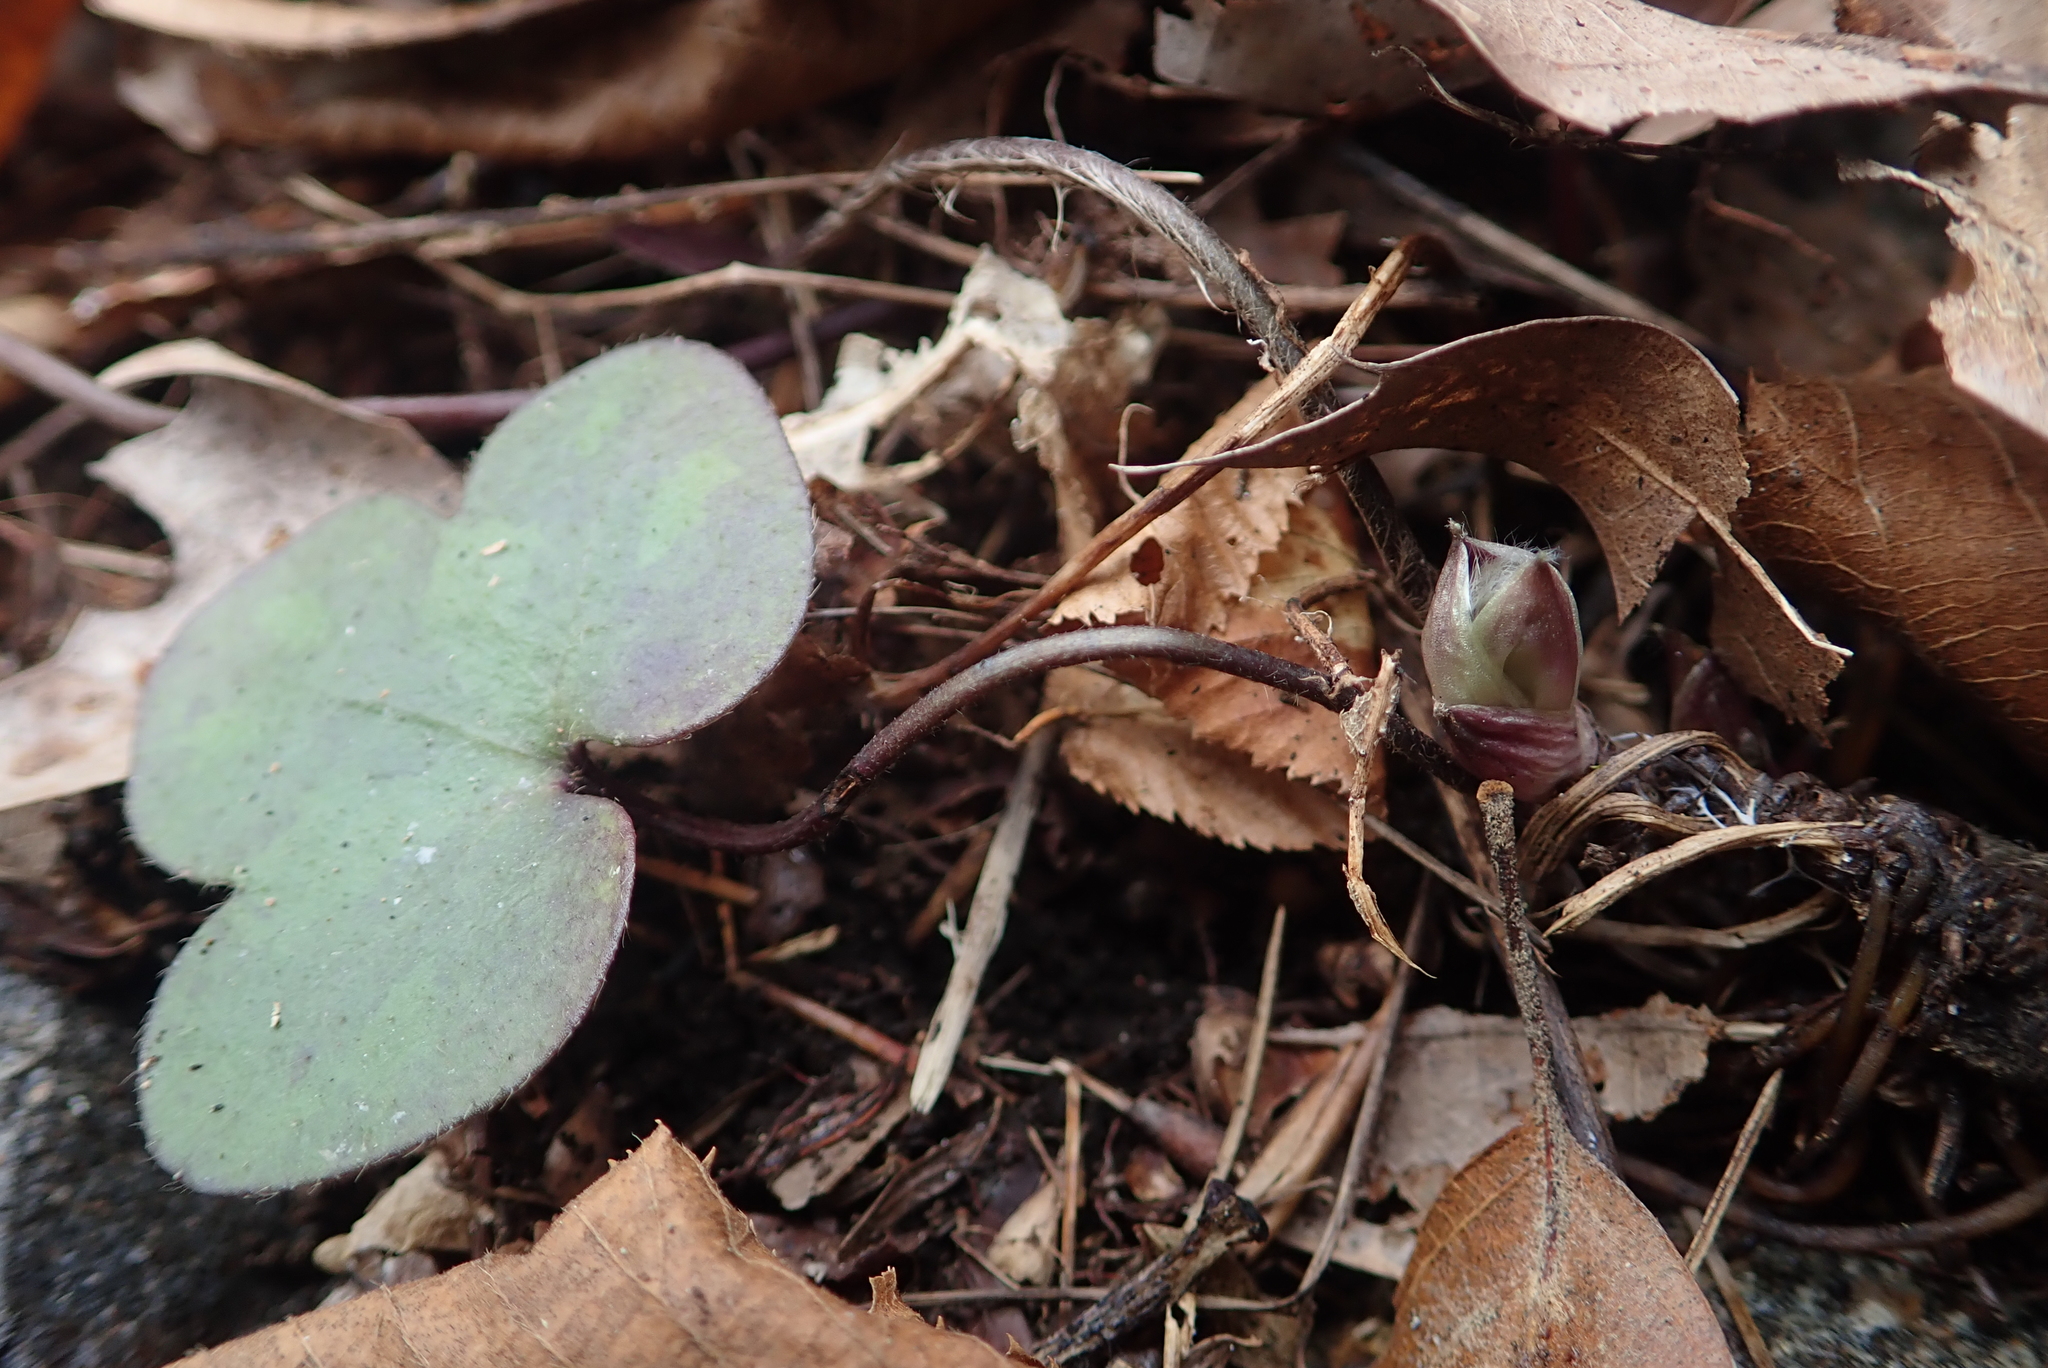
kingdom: Plantae
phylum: Tracheophyta
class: Magnoliopsida
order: Ranunculales
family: Ranunculaceae
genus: Hepatica
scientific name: Hepatica americana
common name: American hepatica
